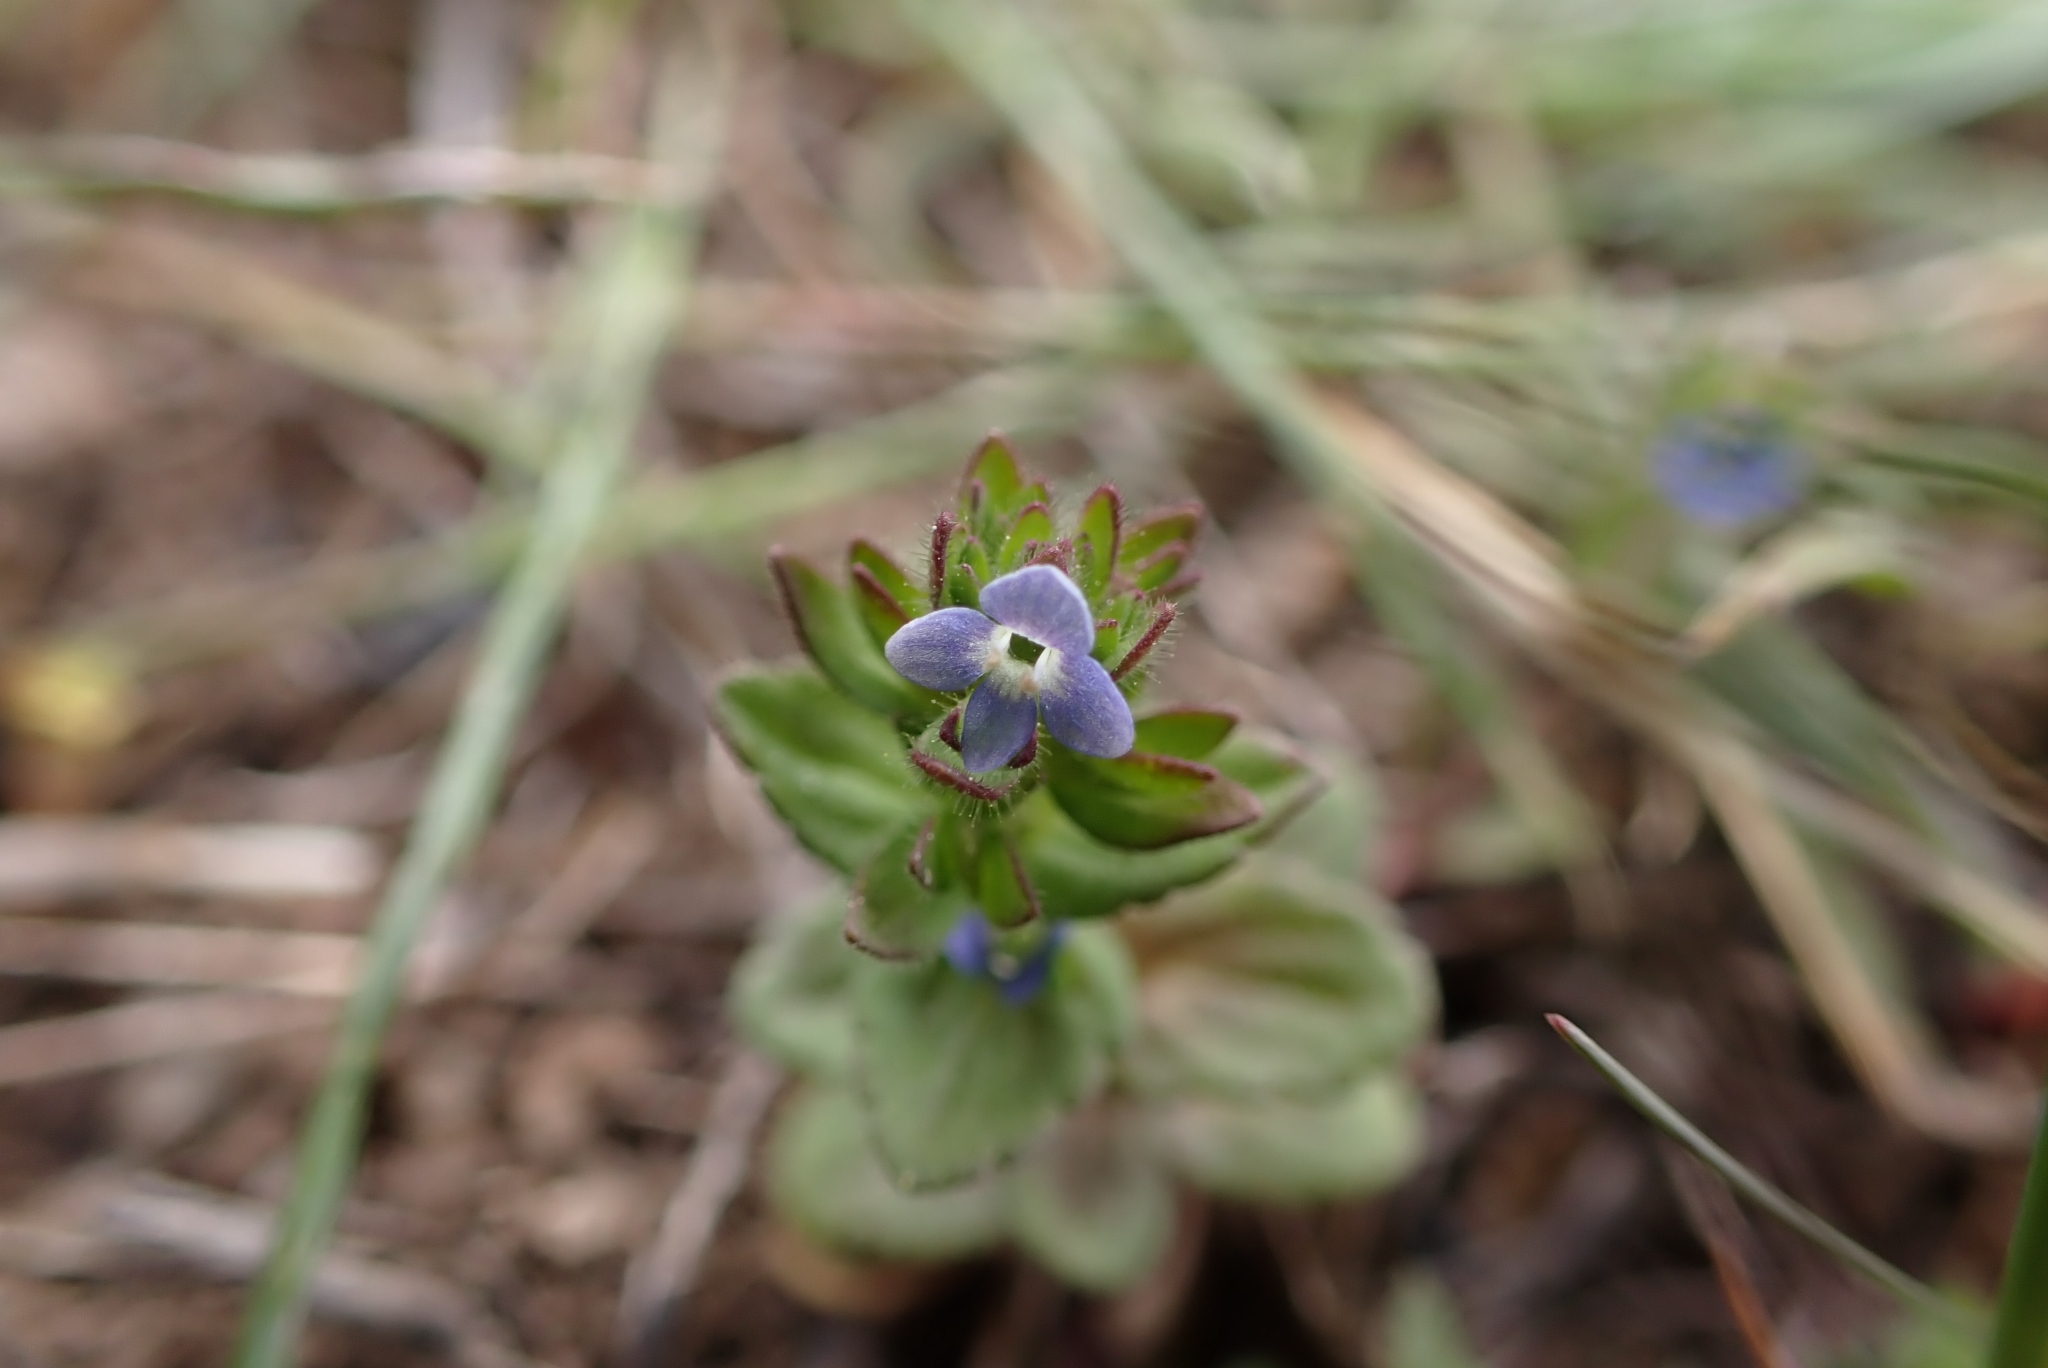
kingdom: Plantae
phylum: Tracheophyta
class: Magnoliopsida
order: Lamiales
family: Plantaginaceae
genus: Veronica
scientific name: Veronica arvensis
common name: Corn speedwell
